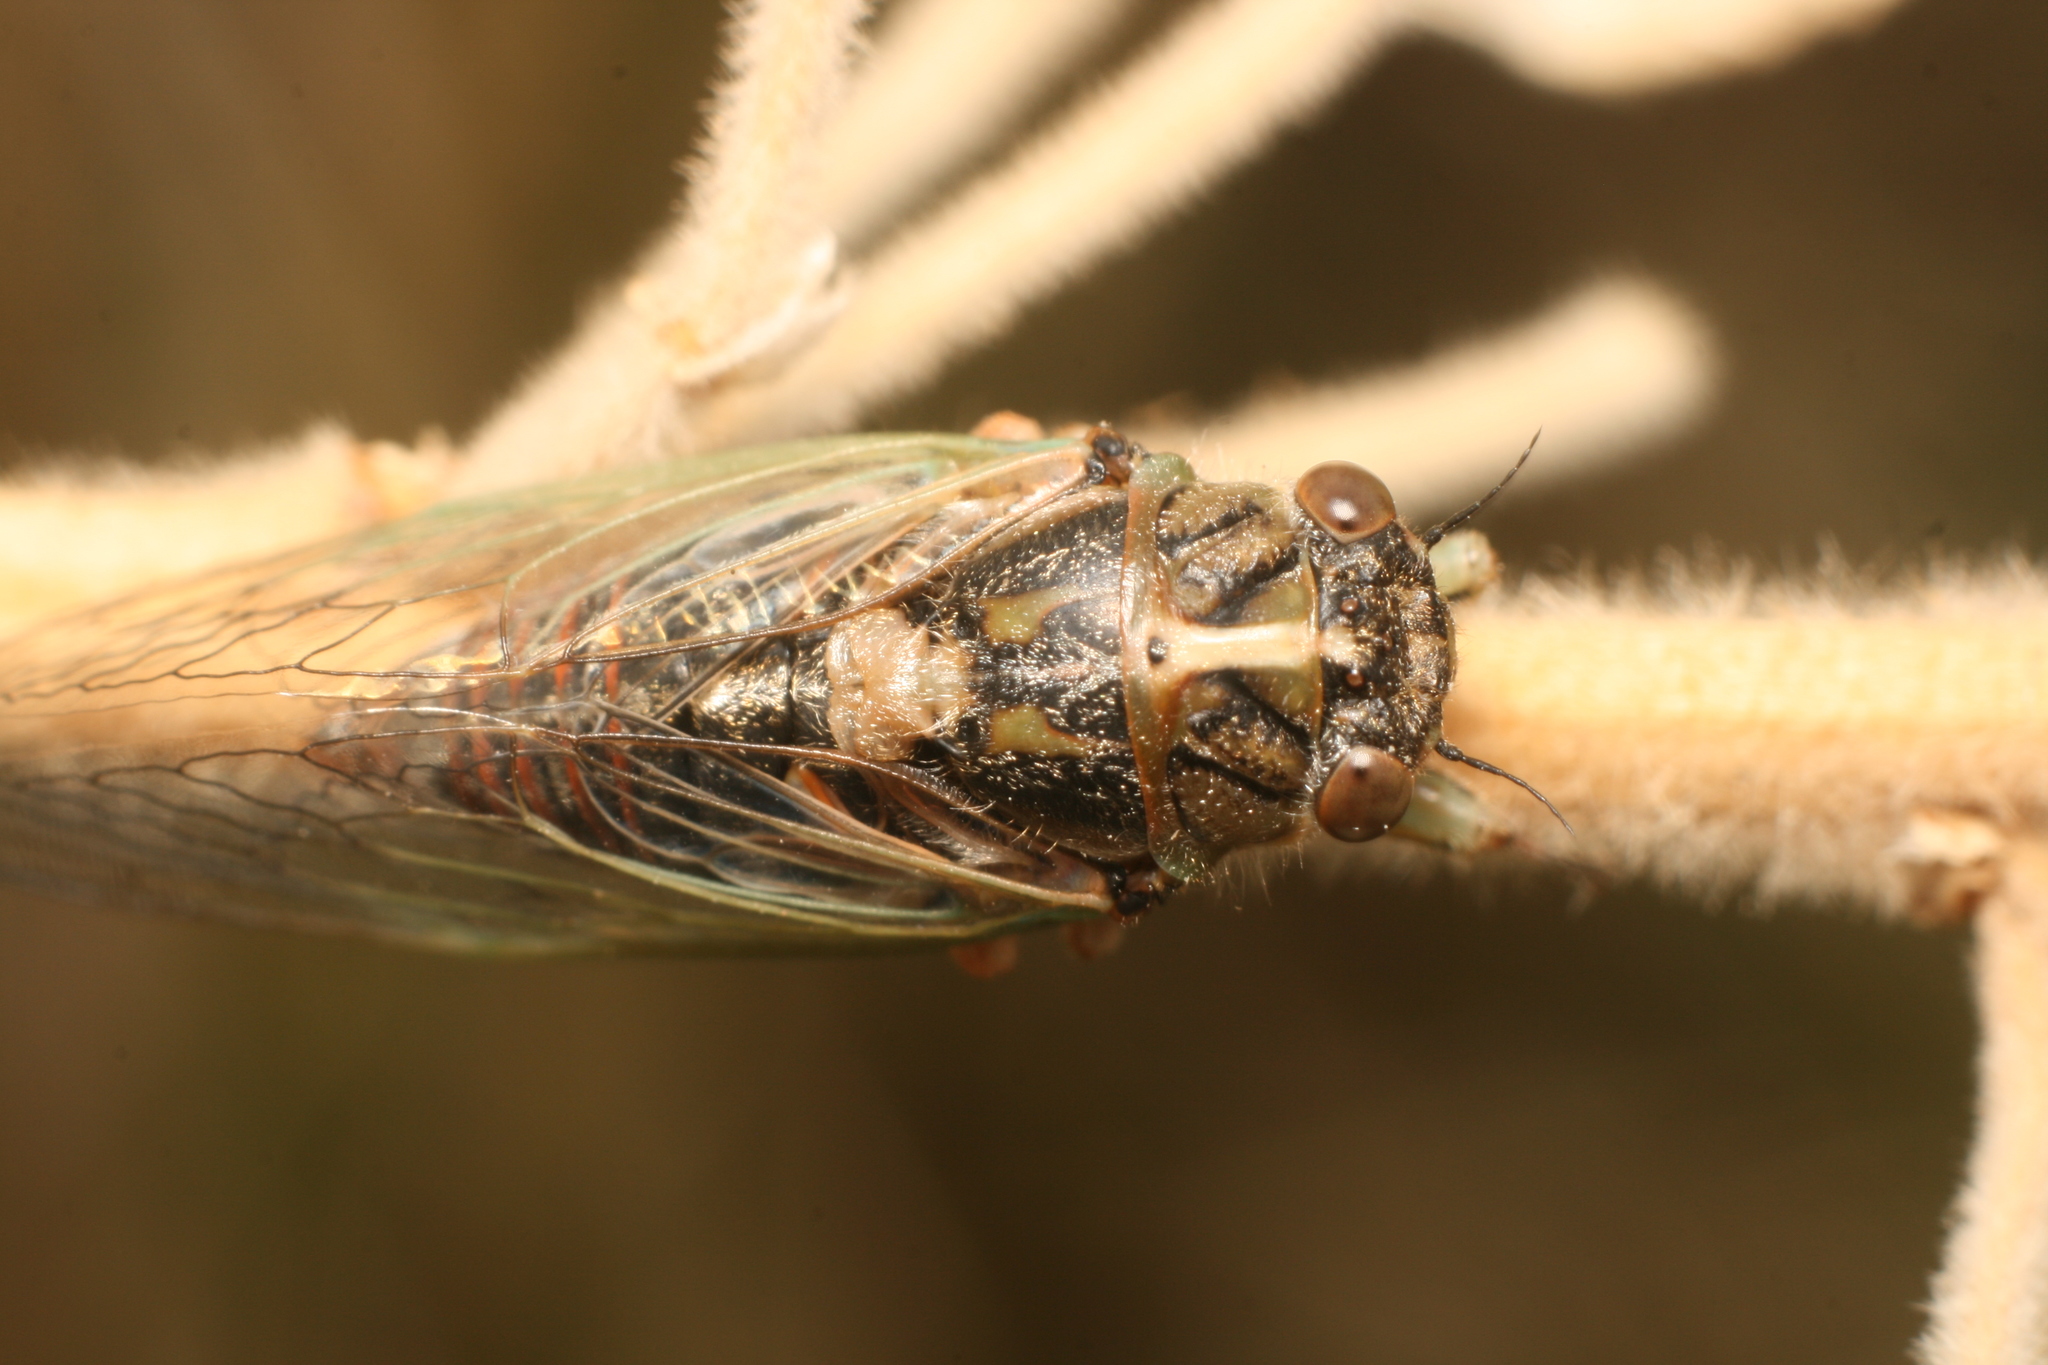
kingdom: Animalia
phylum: Arthropoda
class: Insecta
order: Hemiptera
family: Cicadidae
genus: Rhodopsalta
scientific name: Rhodopsalta microdora
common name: Little redtail cicada
